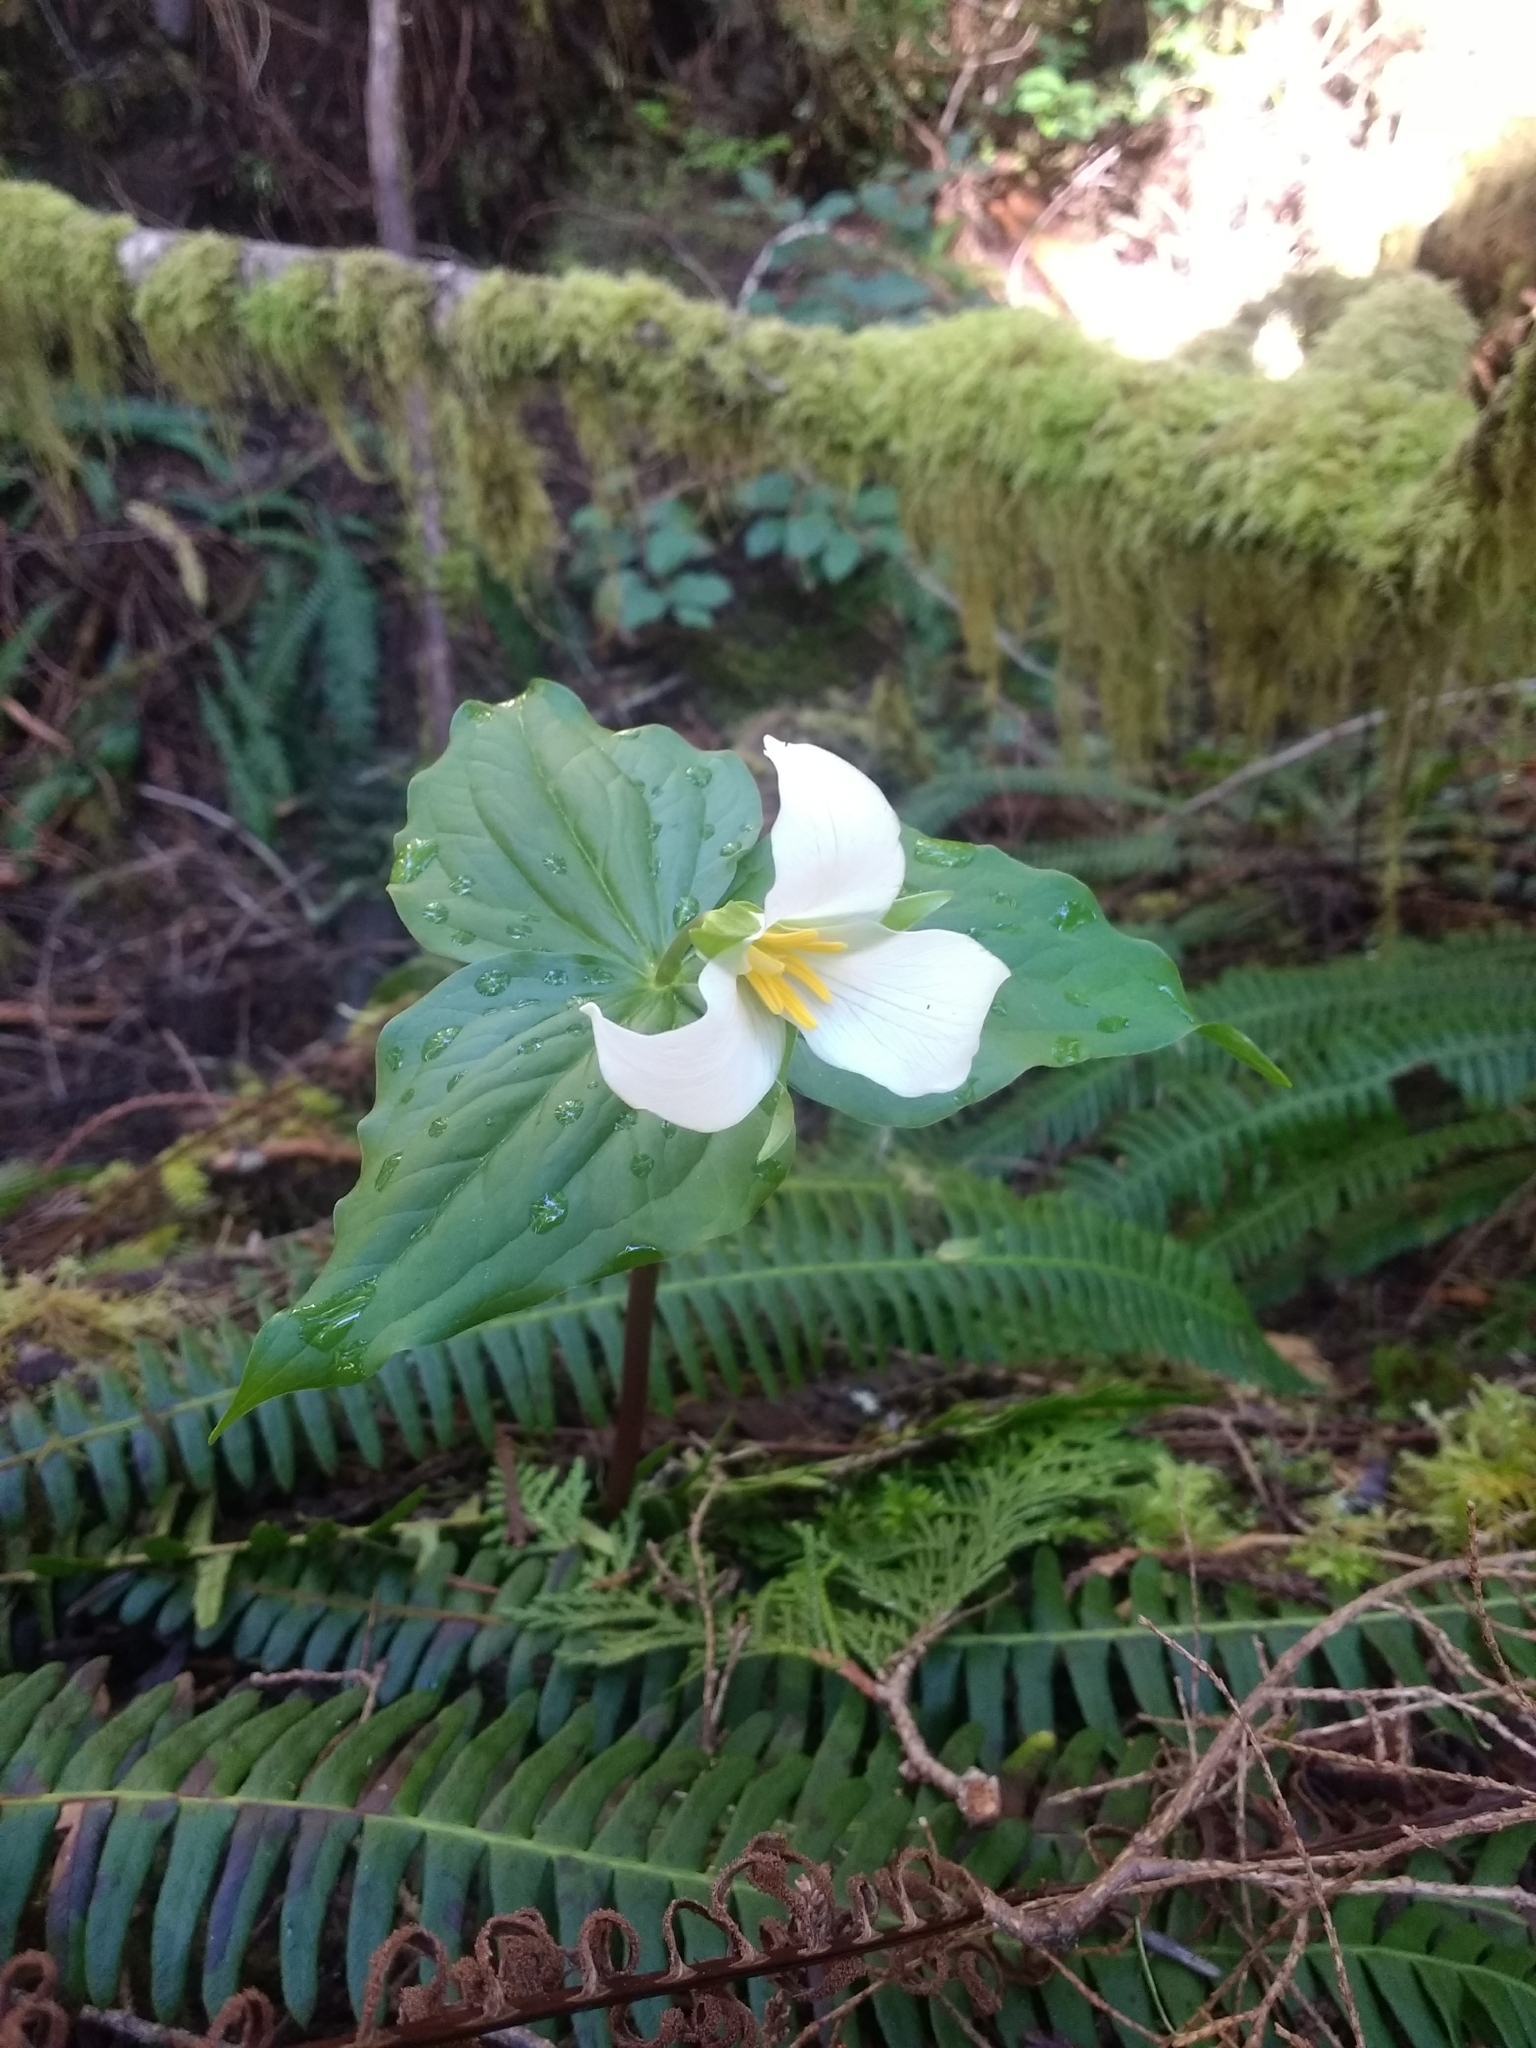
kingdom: Plantae
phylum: Tracheophyta
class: Liliopsida
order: Liliales
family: Melanthiaceae
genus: Trillium
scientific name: Trillium ovatum
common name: Pacific trillium
